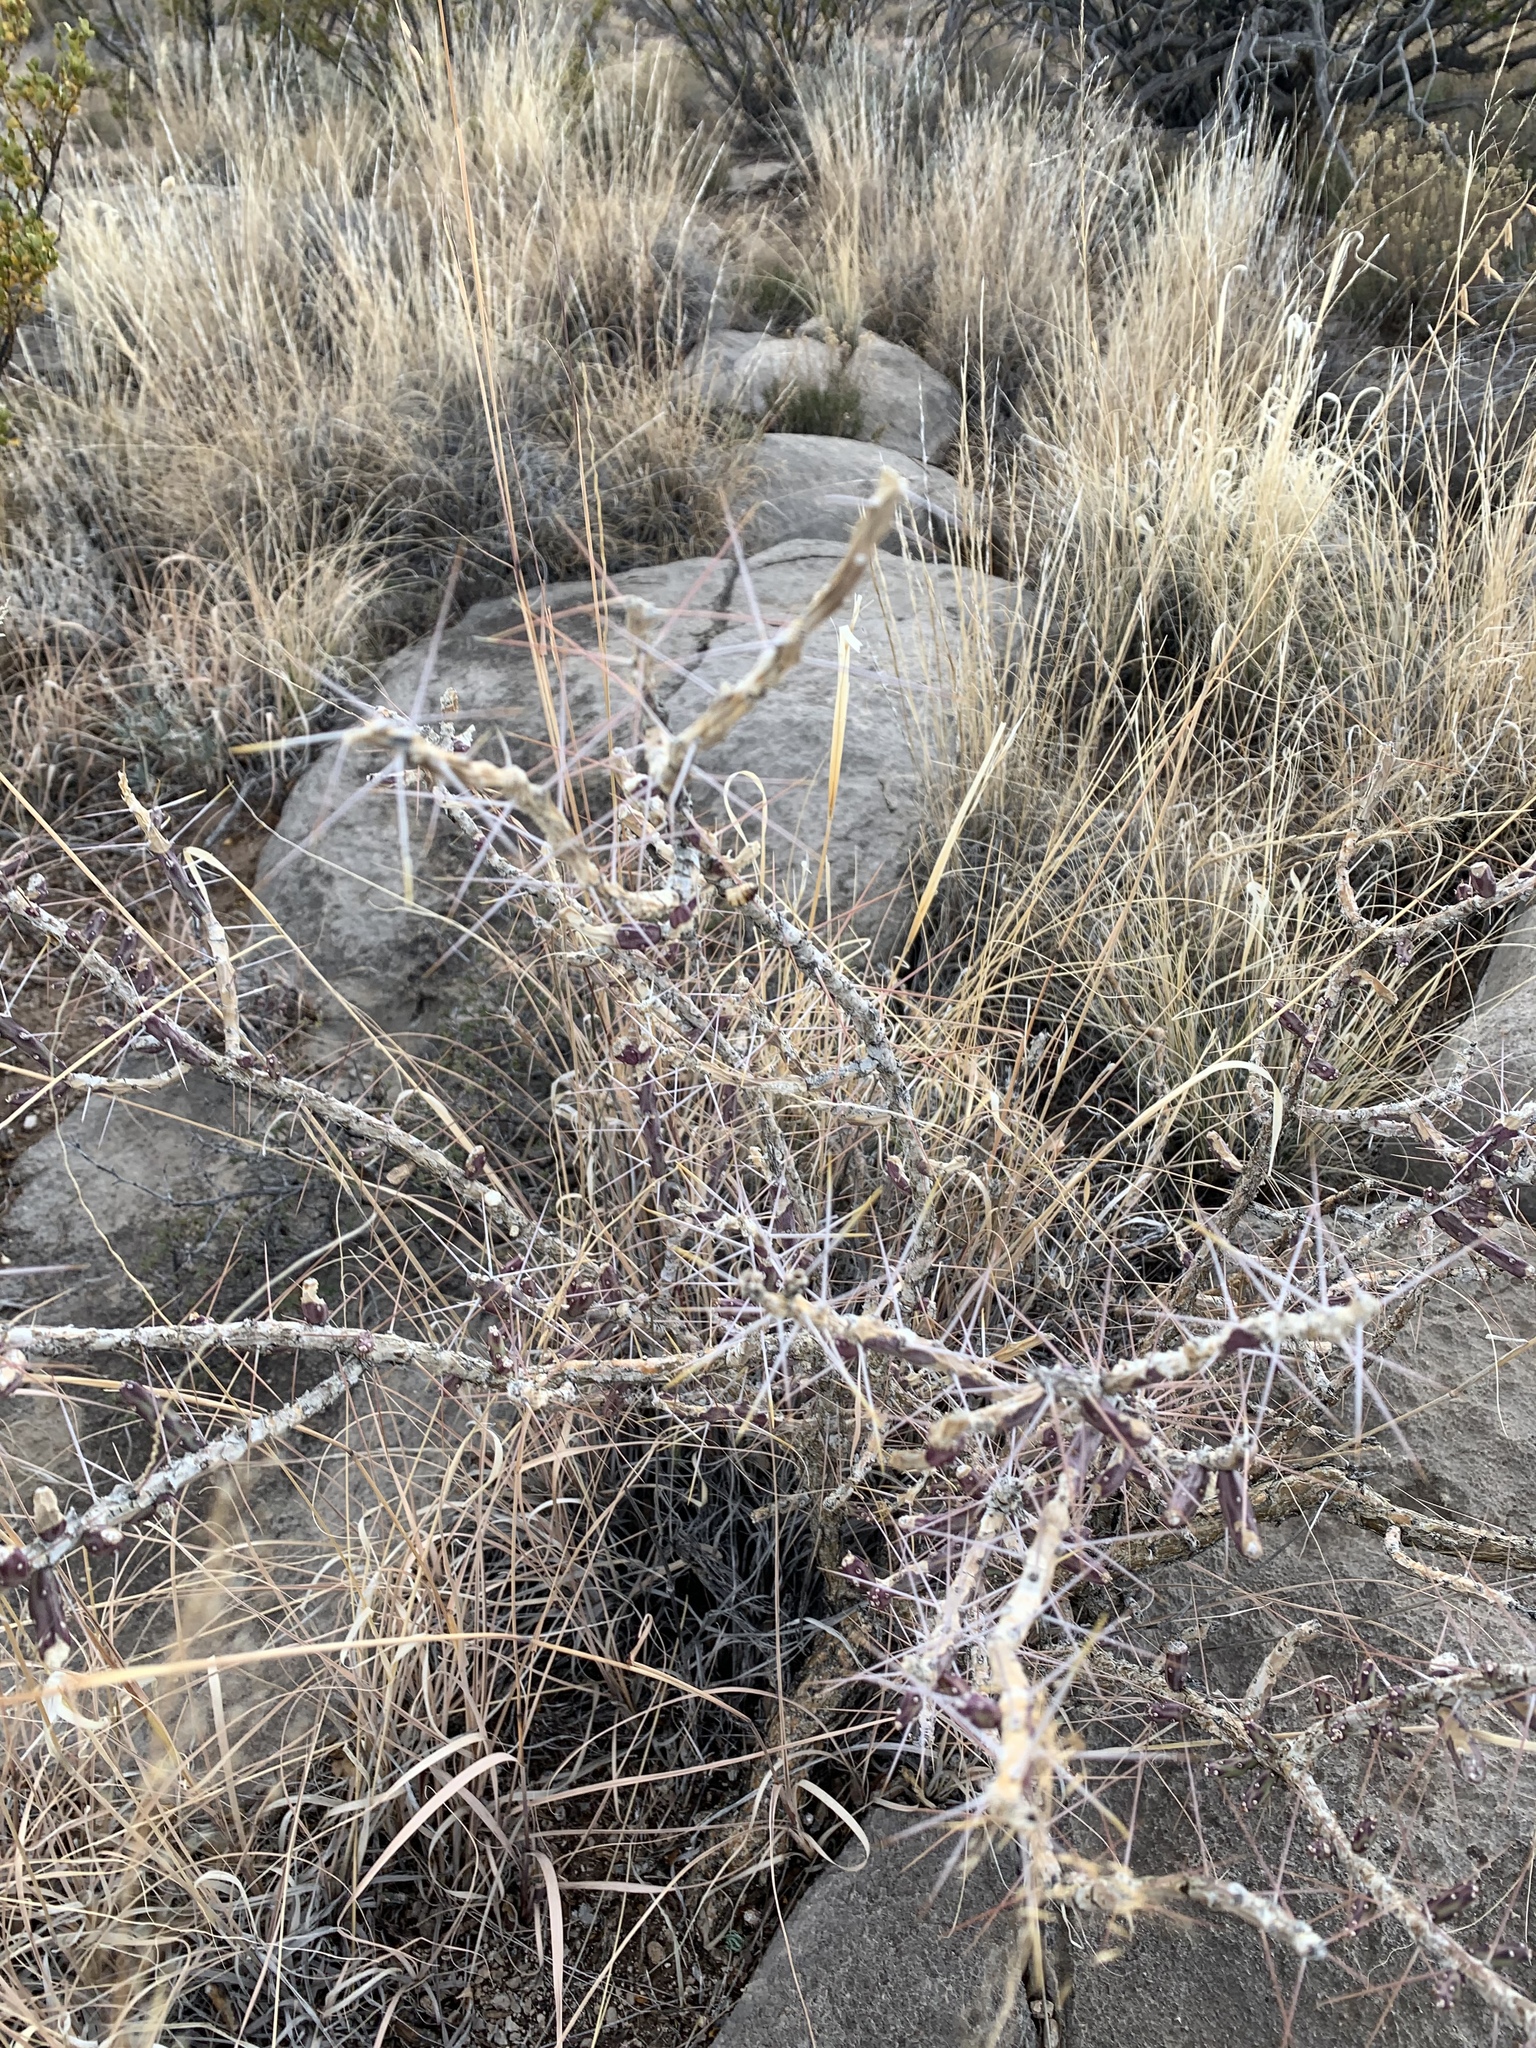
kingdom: Plantae
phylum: Tracheophyta
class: Magnoliopsida
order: Caryophyllales
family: Cactaceae
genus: Cylindropuntia
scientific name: Cylindropuntia leptocaulis
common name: Christmas cactus
